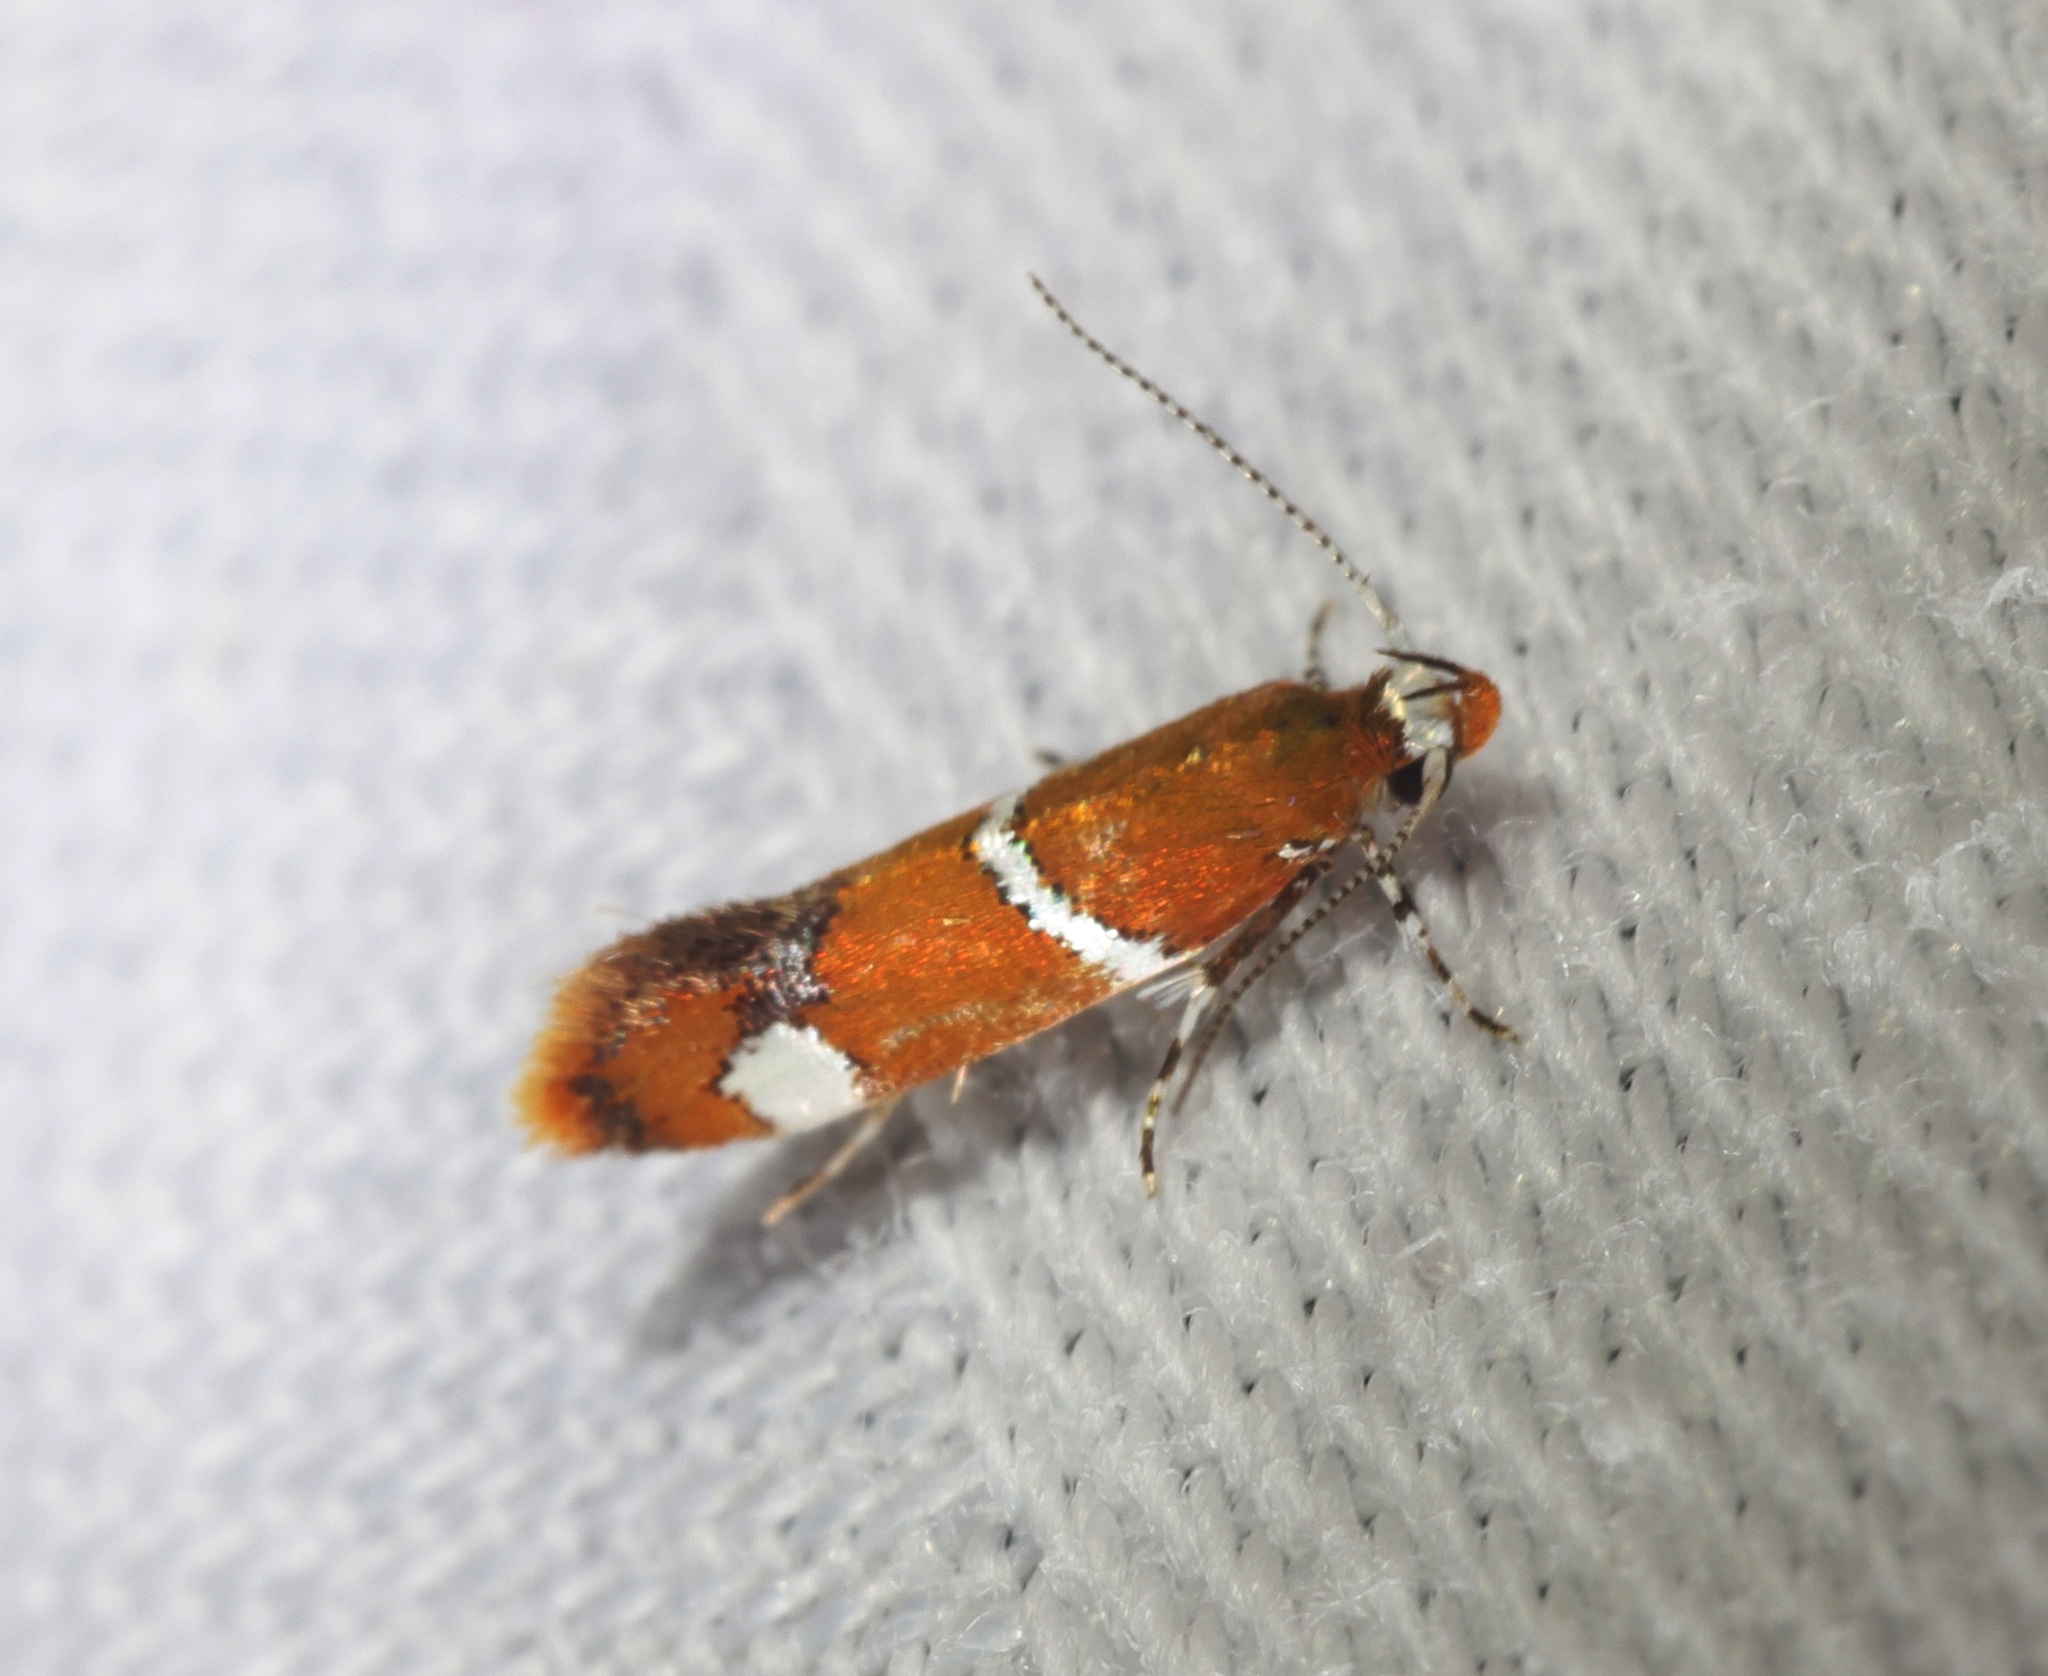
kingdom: Animalia
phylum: Arthropoda
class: Insecta
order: Lepidoptera
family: Oecophoridae
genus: Promalactis
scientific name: Promalactis albisquama
